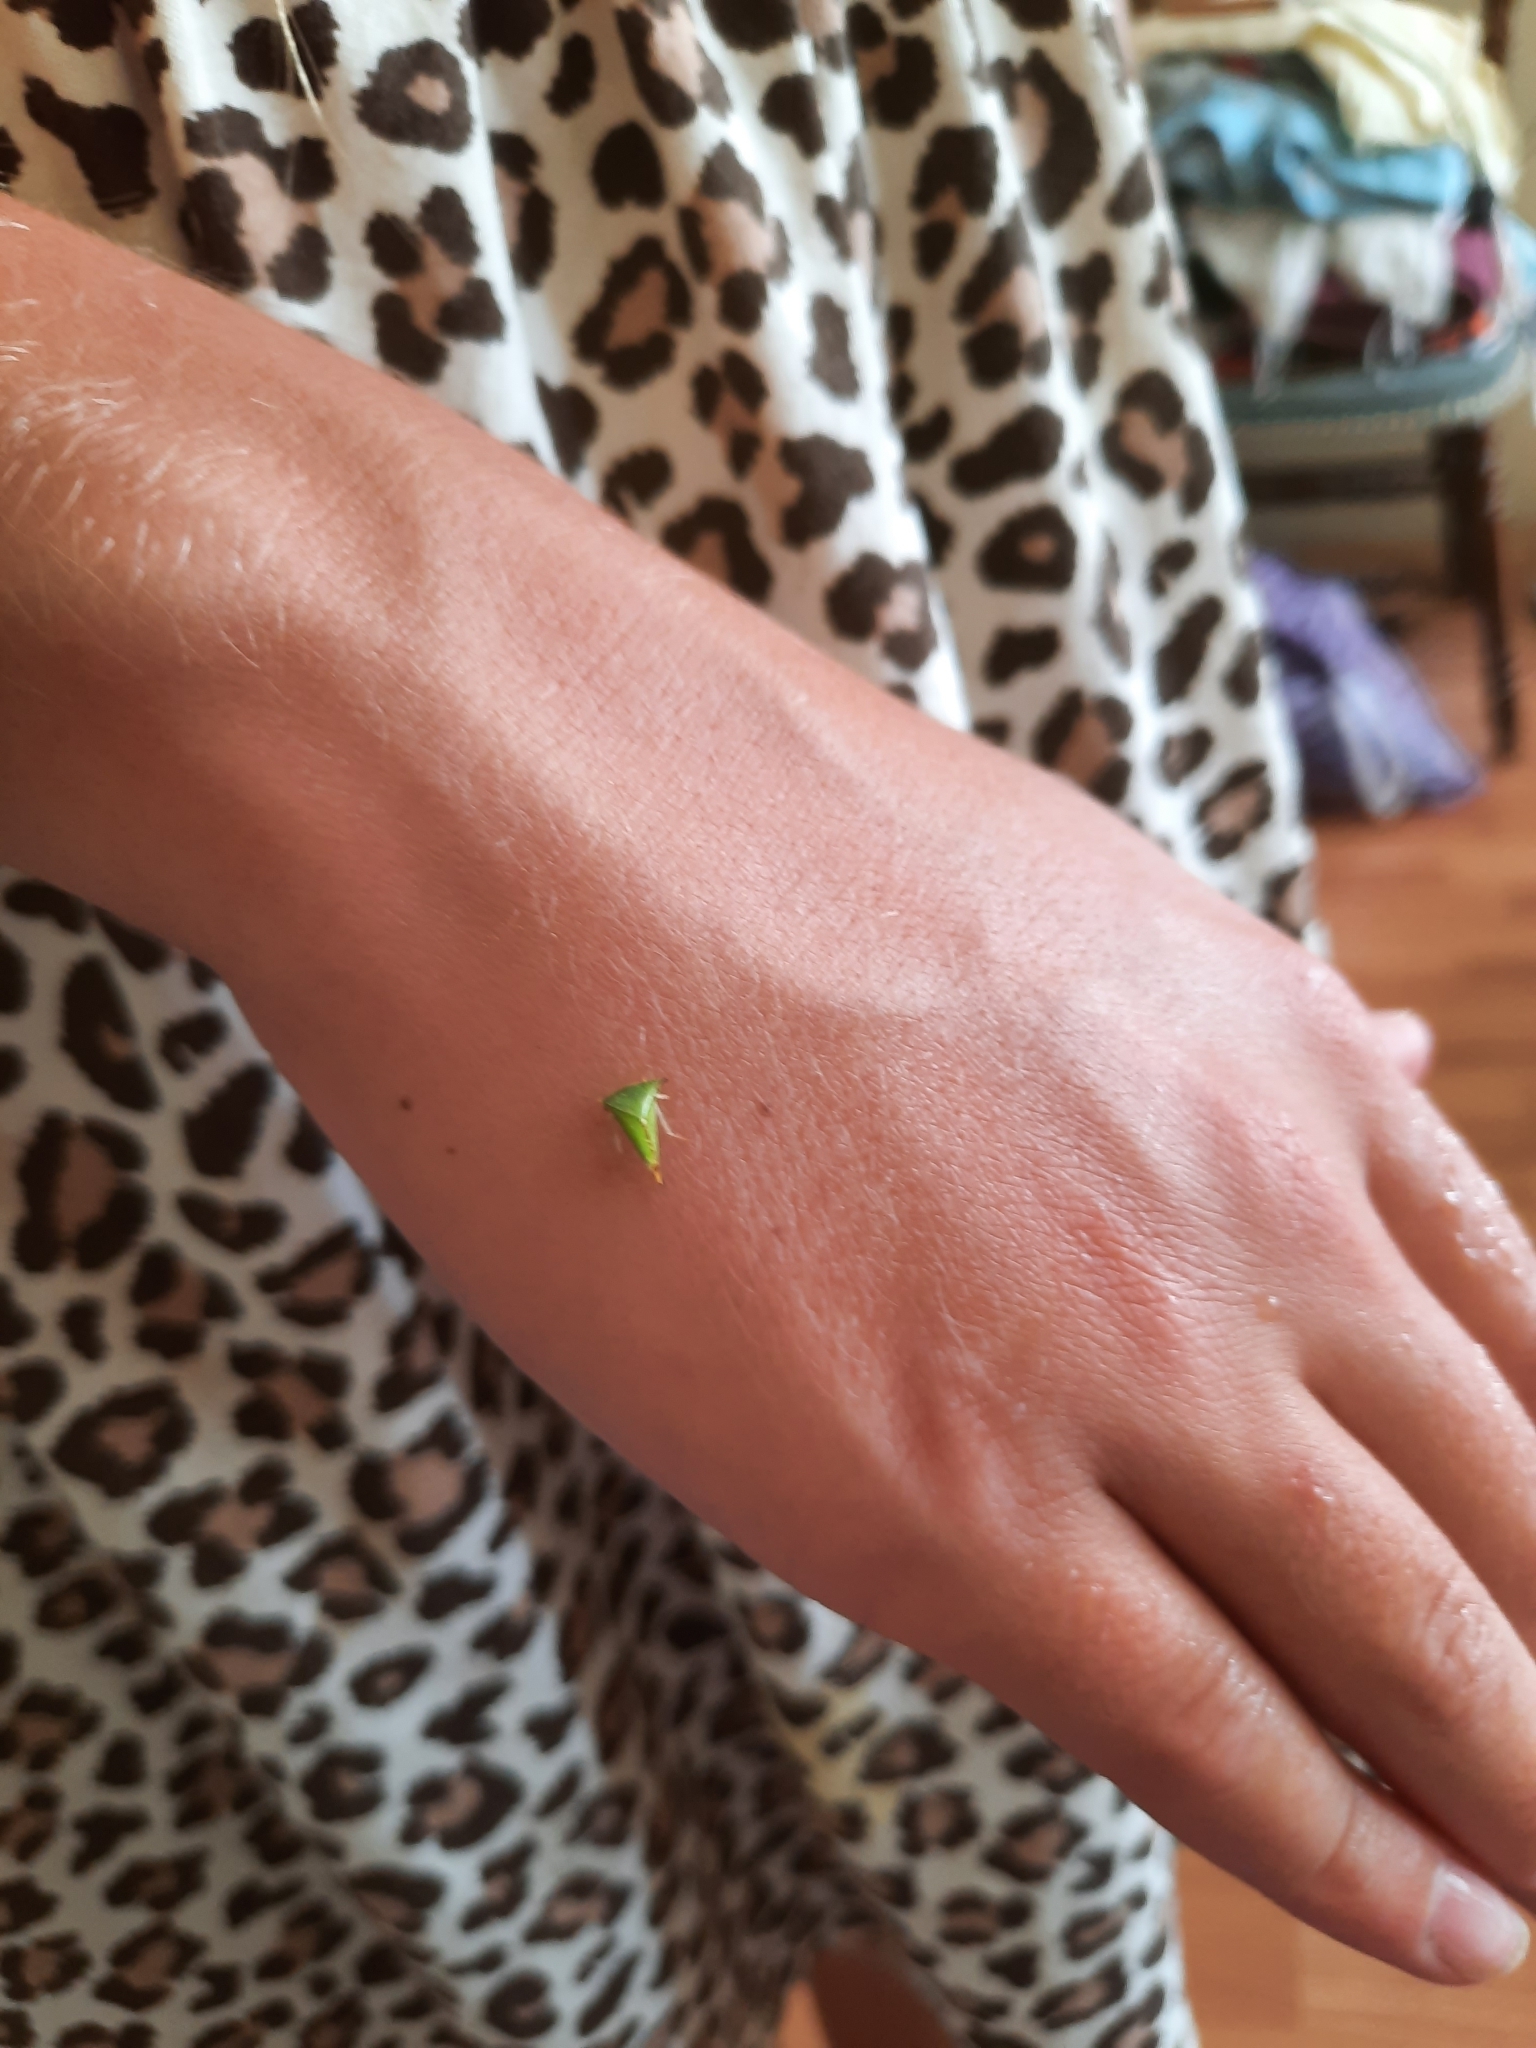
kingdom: Animalia
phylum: Arthropoda
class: Insecta
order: Hemiptera
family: Membracidae
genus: Stictocephala
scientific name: Stictocephala bisonia
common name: American buffalo treehopper
